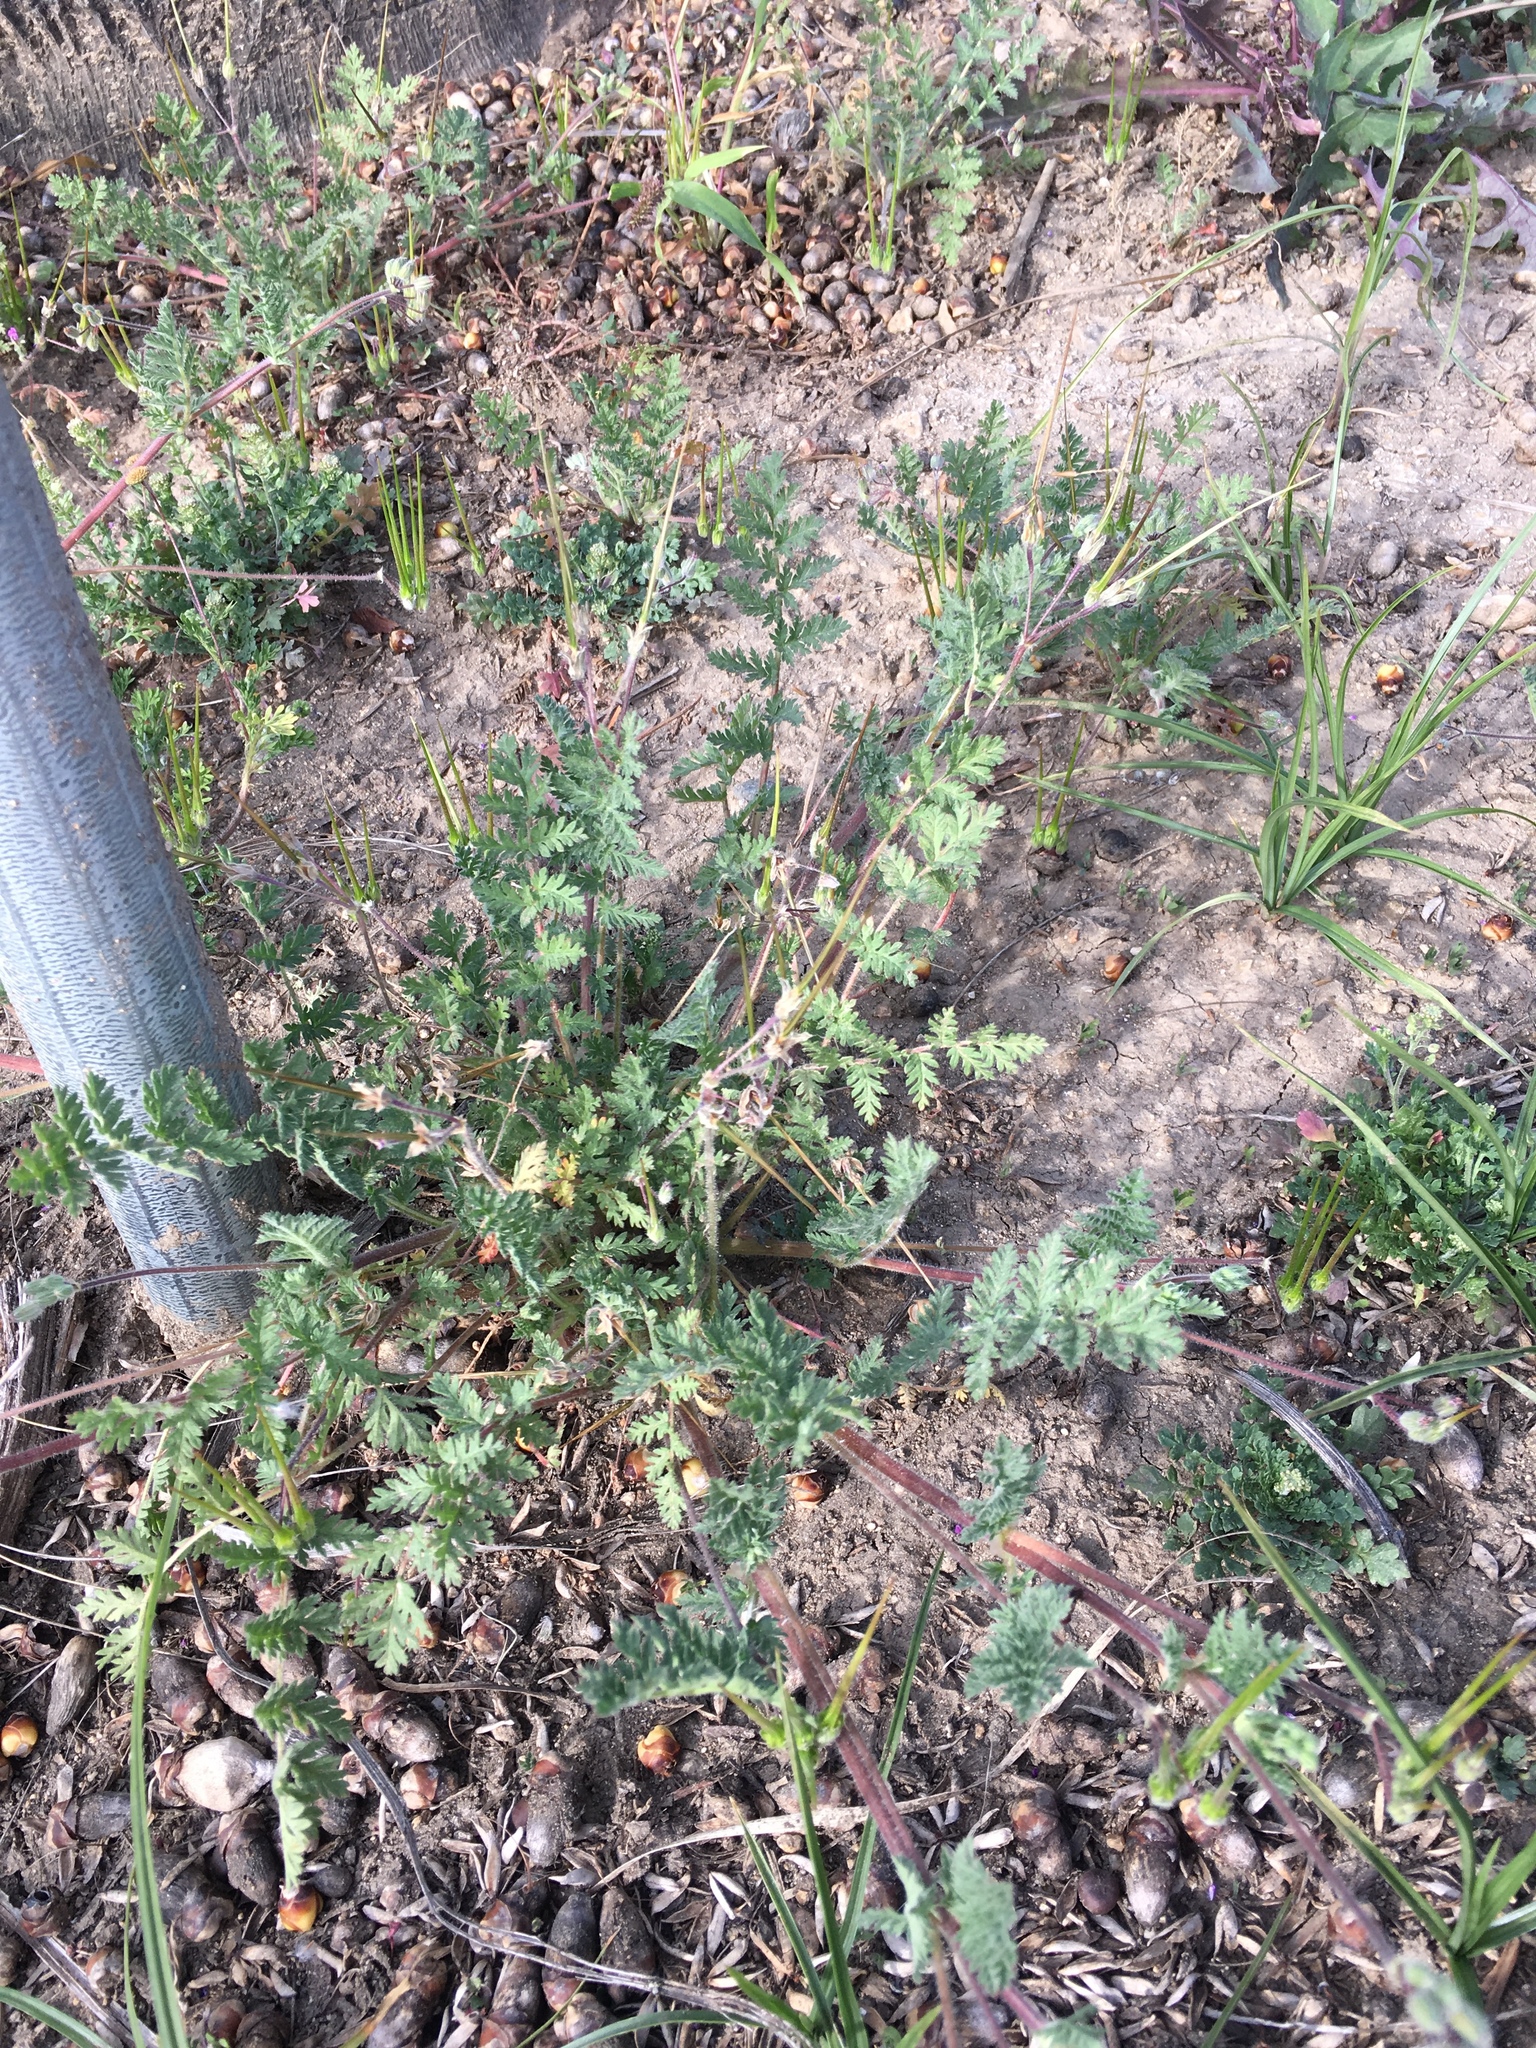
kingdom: Plantae
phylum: Tracheophyta
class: Magnoliopsida
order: Geraniales
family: Geraniaceae
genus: Erodium
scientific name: Erodium cicutarium
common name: Common stork's-bill
